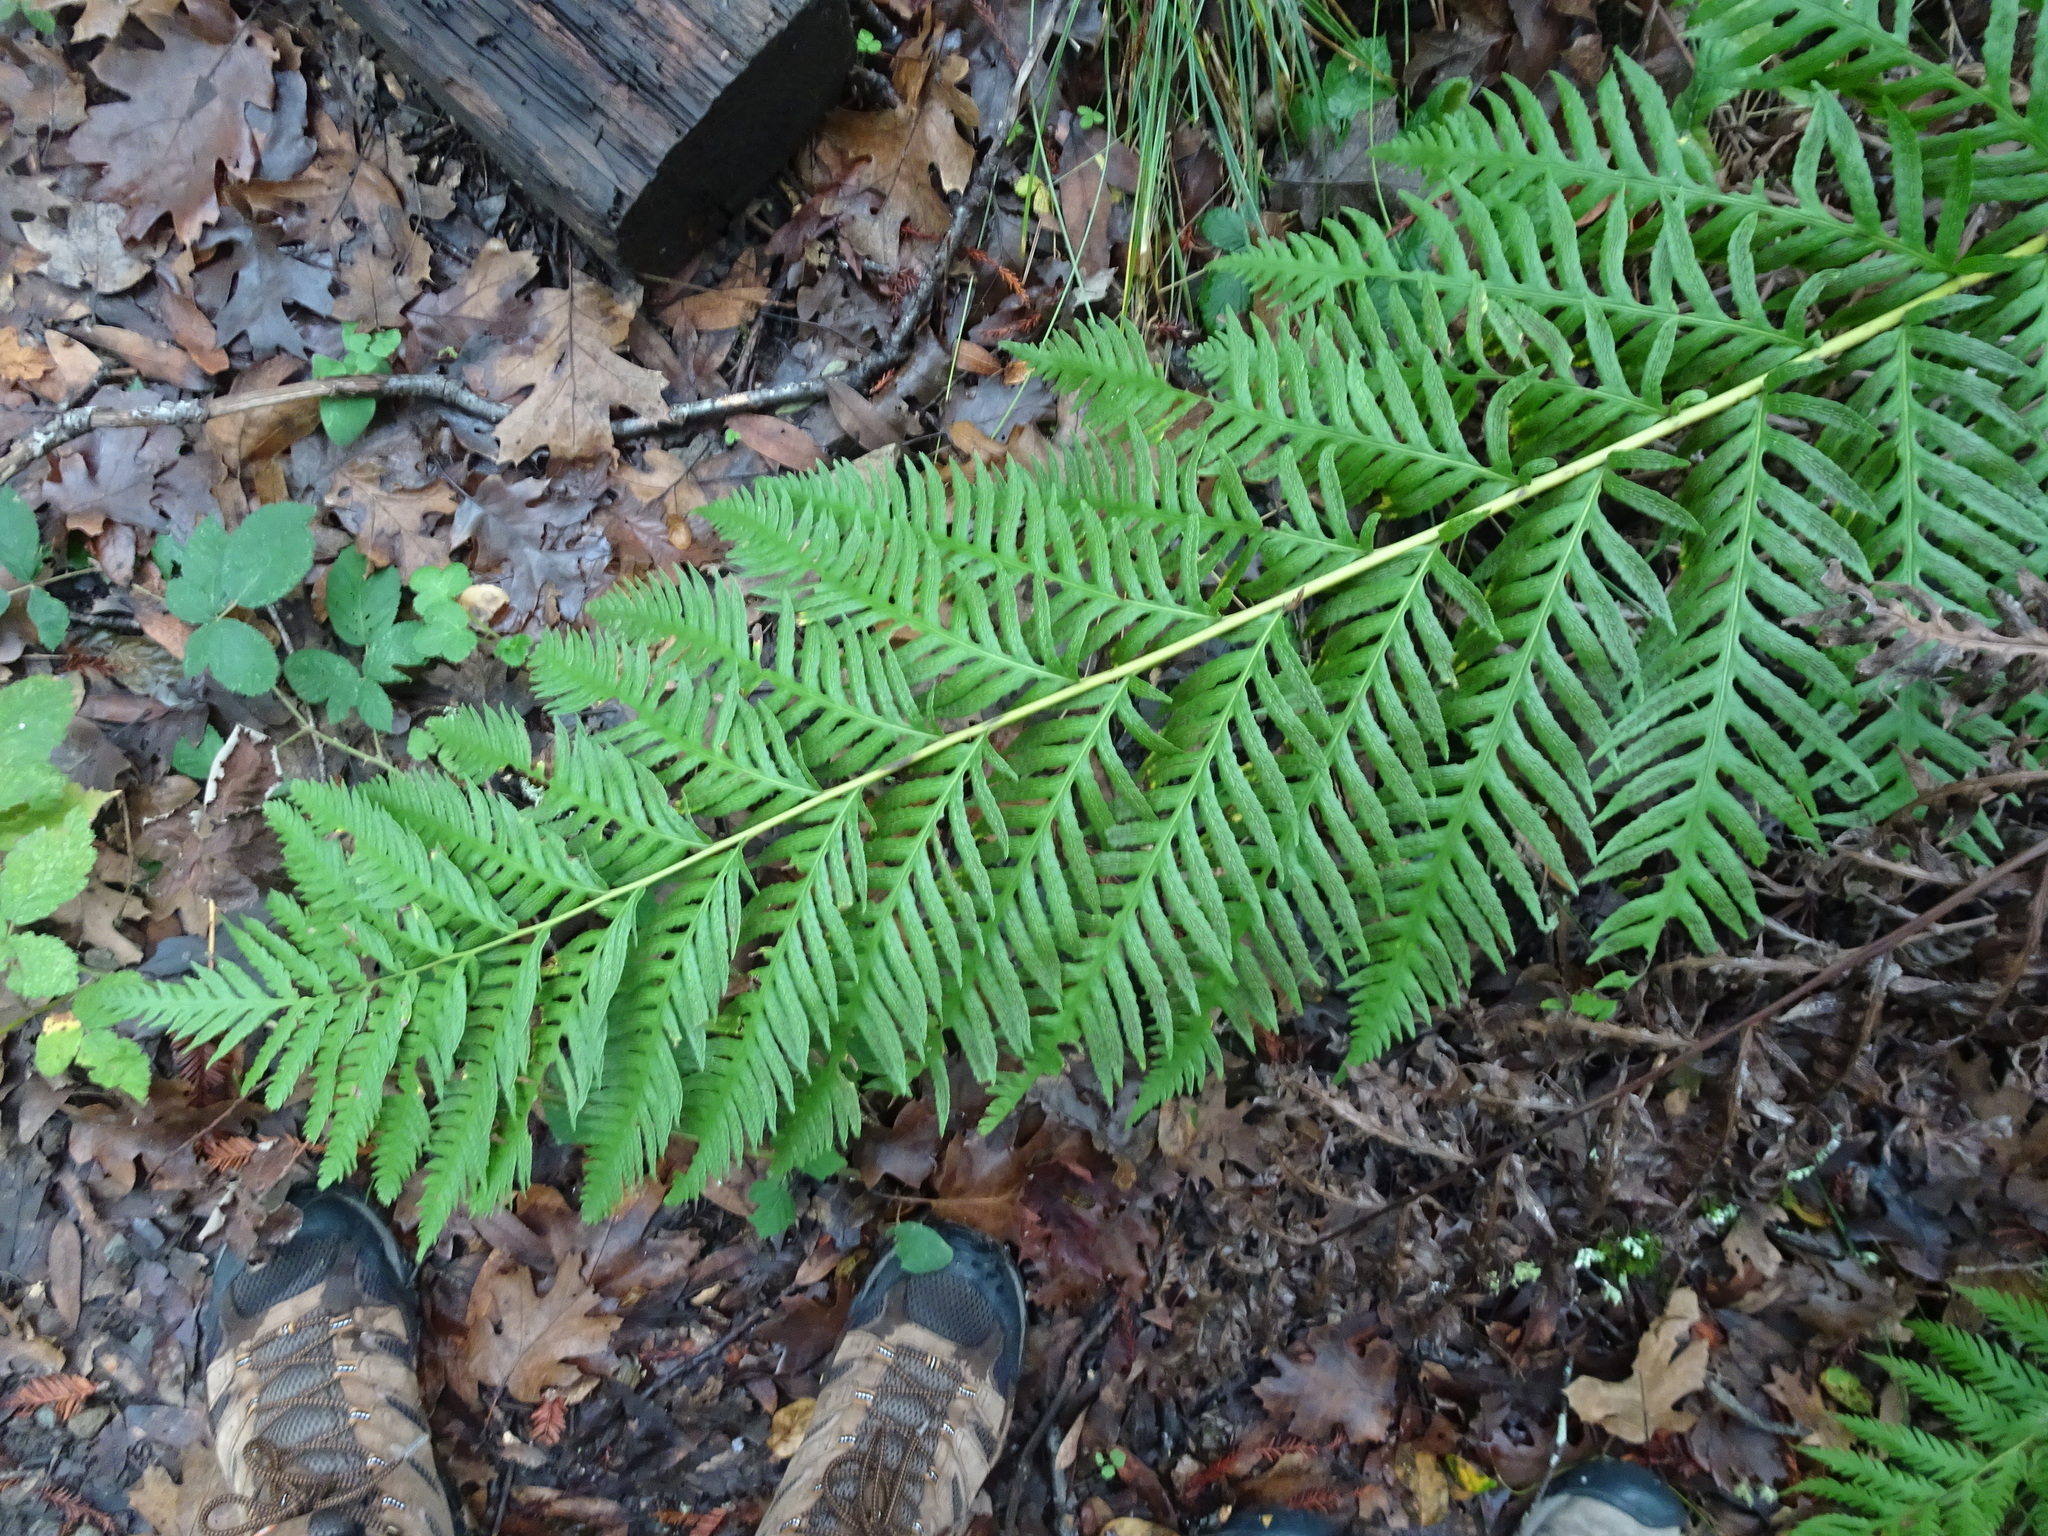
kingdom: Plantae
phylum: Tracheophyta
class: Polypodiopsida
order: Polypodiales
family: Blechnaceae
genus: Woodwardia
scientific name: Woodwardia fimbriata
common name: Giant chain fern
